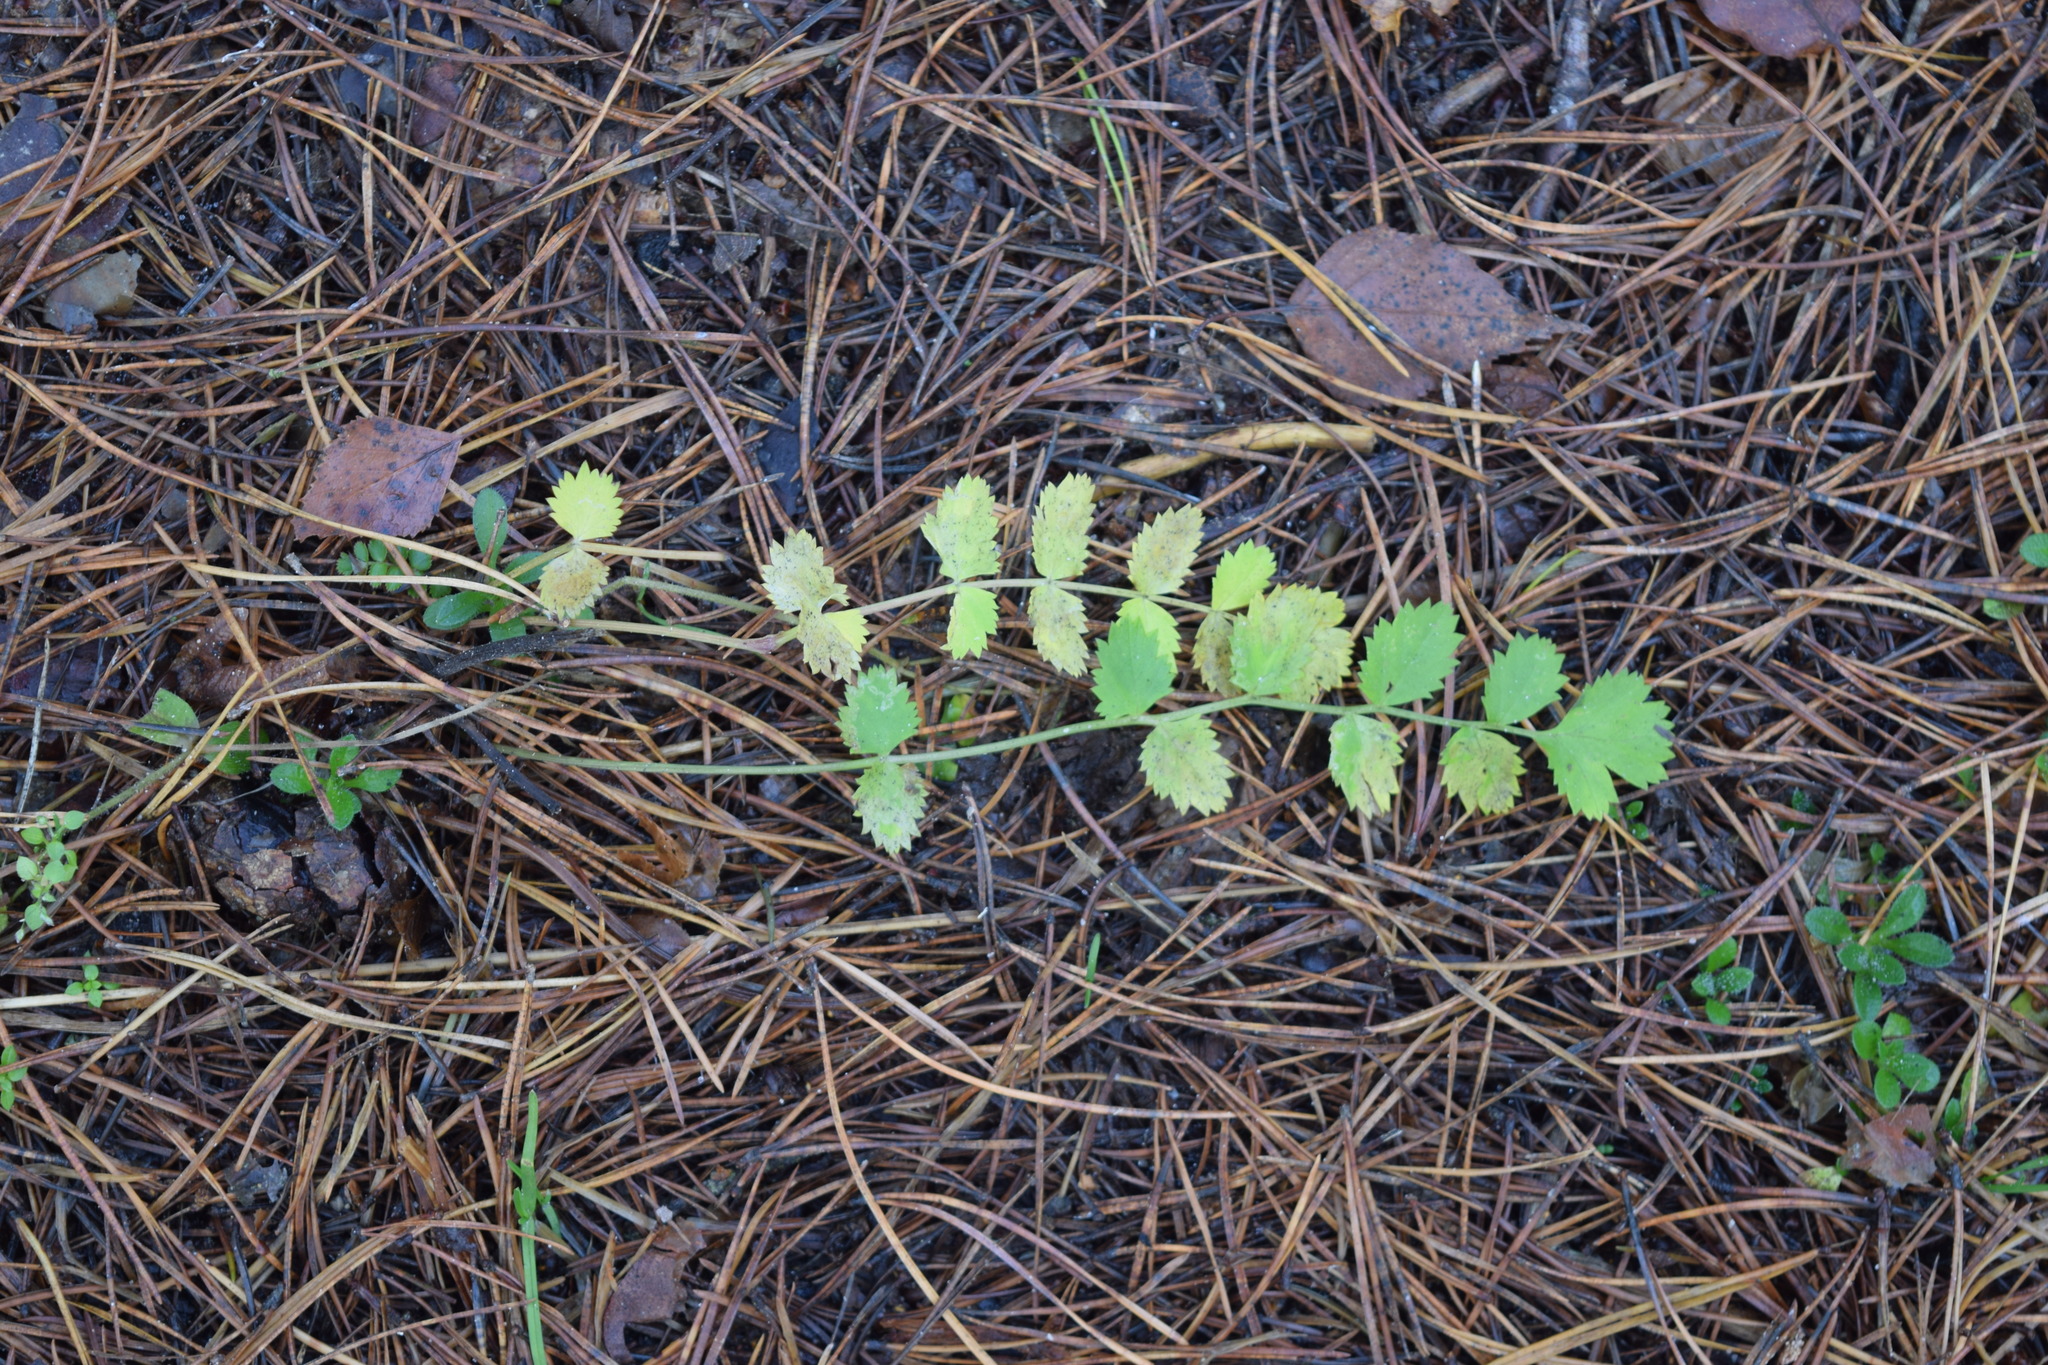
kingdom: Plantae
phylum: Tracheophyta
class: Magnoliopsida
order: Apiales
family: Apiaceae
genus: Pimpinella
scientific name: Pimpinella saxifraga
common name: Burnet-saxifrage
